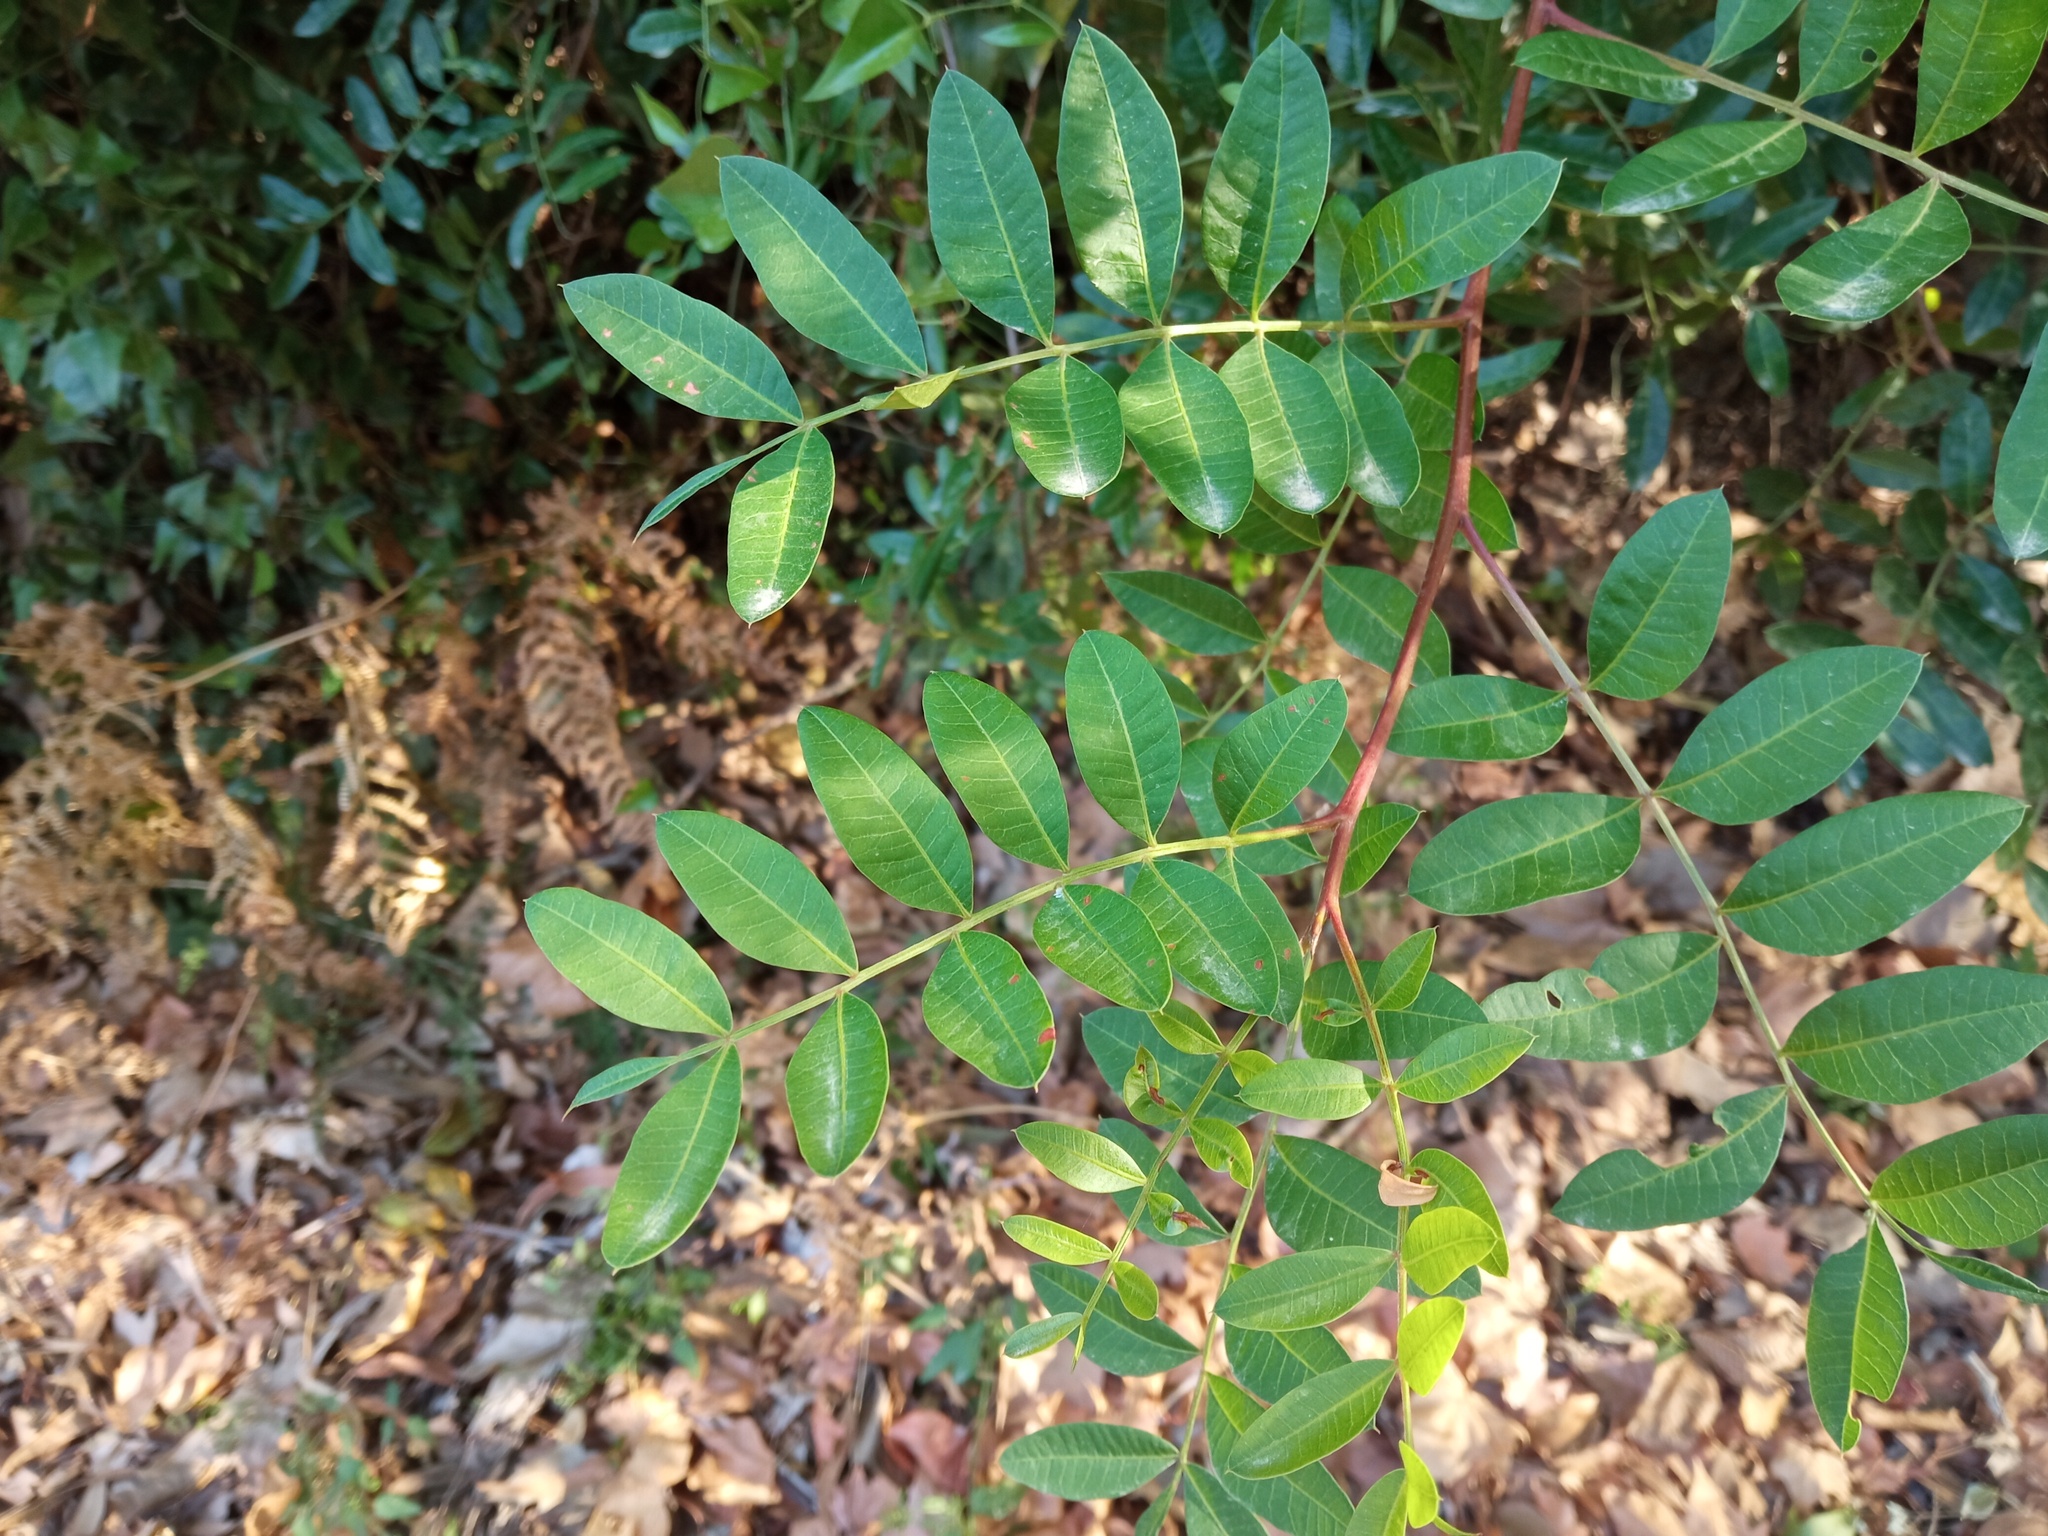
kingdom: Plantae
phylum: Tracheophyta
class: Magnoliopsida
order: Sapindales
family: Anacardiaceae
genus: Pistacia
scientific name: Pistacia saportae
